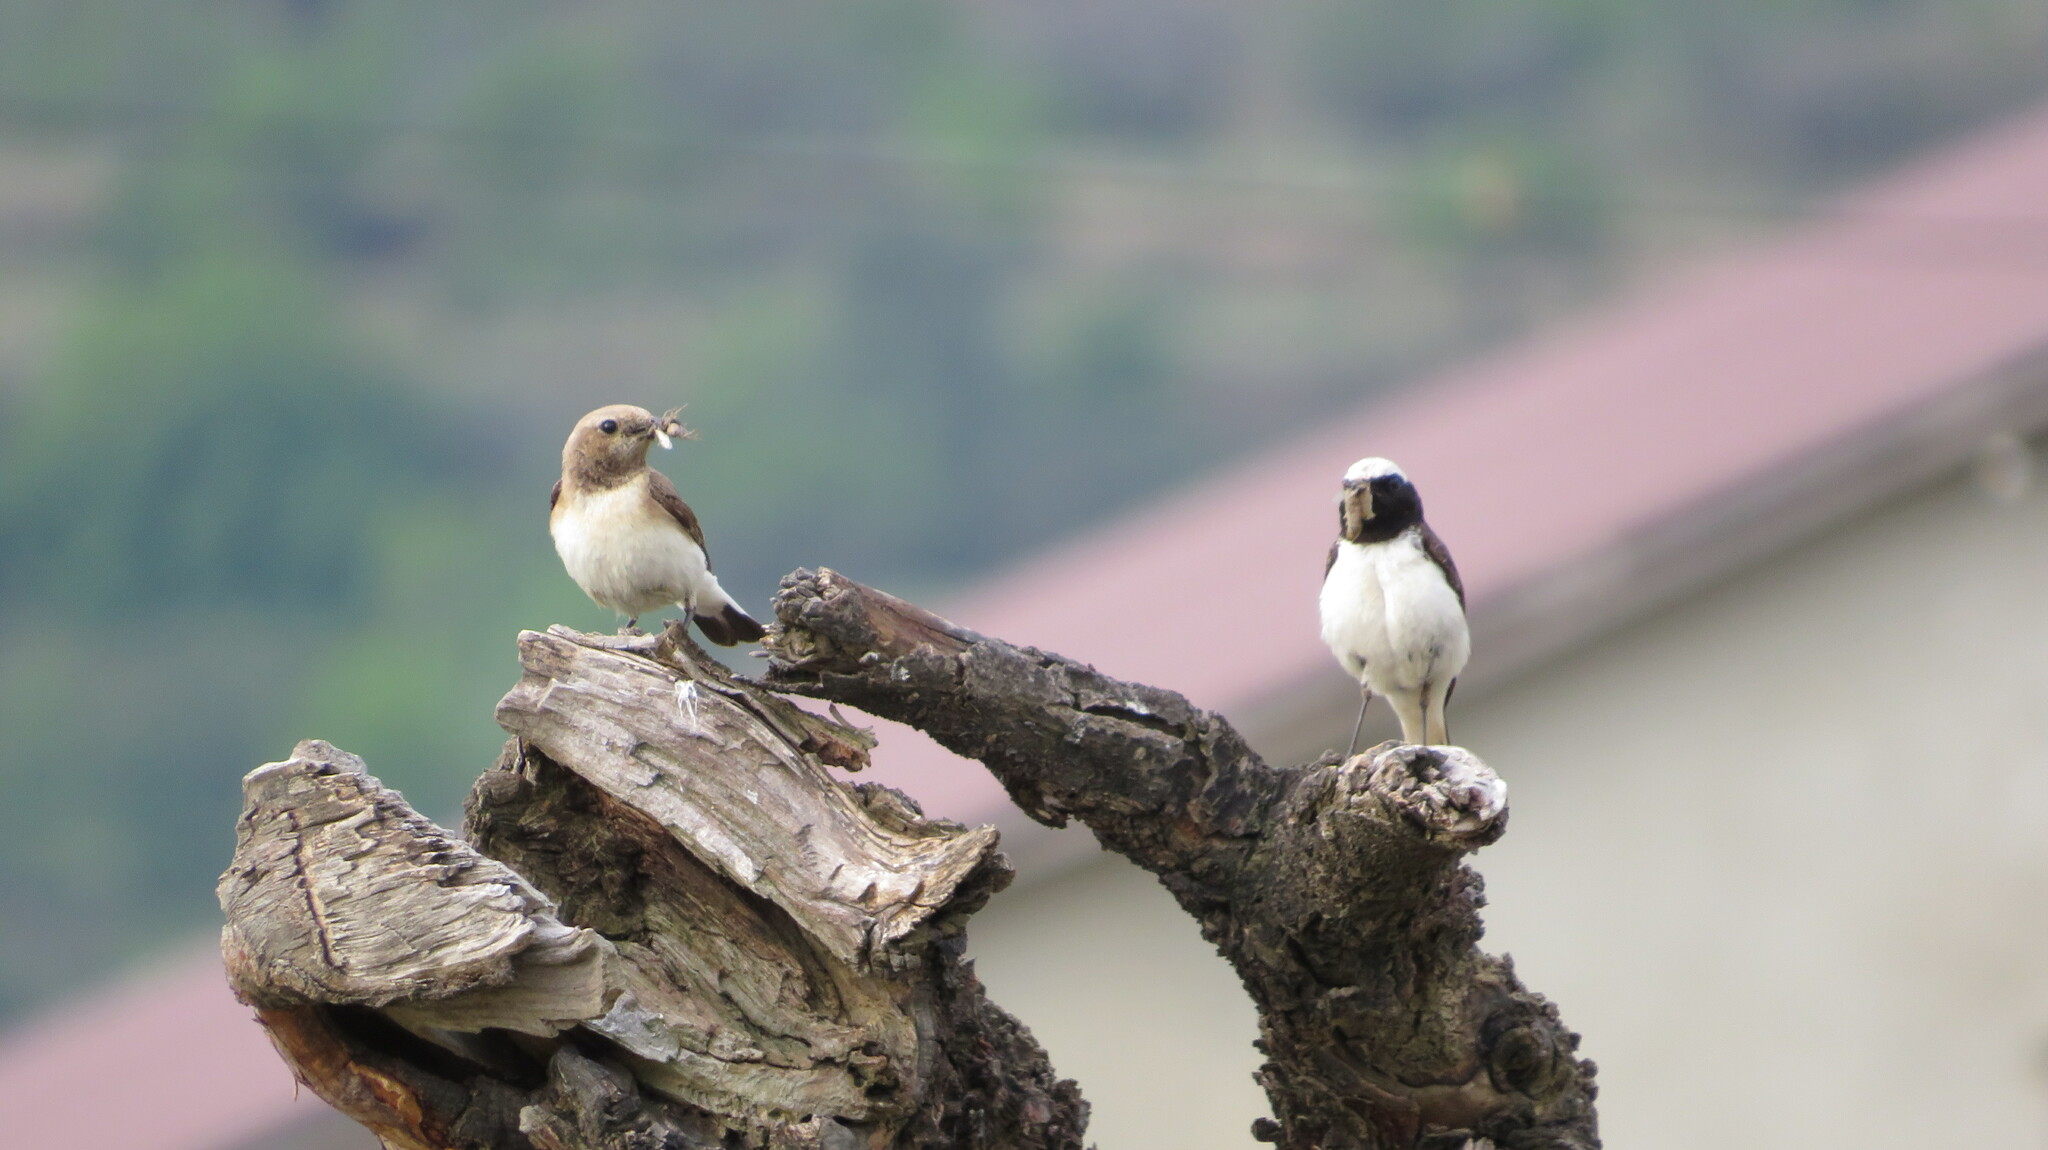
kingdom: Animalia
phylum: Chordata
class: Aves
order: Passeriformes
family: Muscicapidae
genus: Oenanthe
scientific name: Oenanthe pleschanka
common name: Pied wheatear
